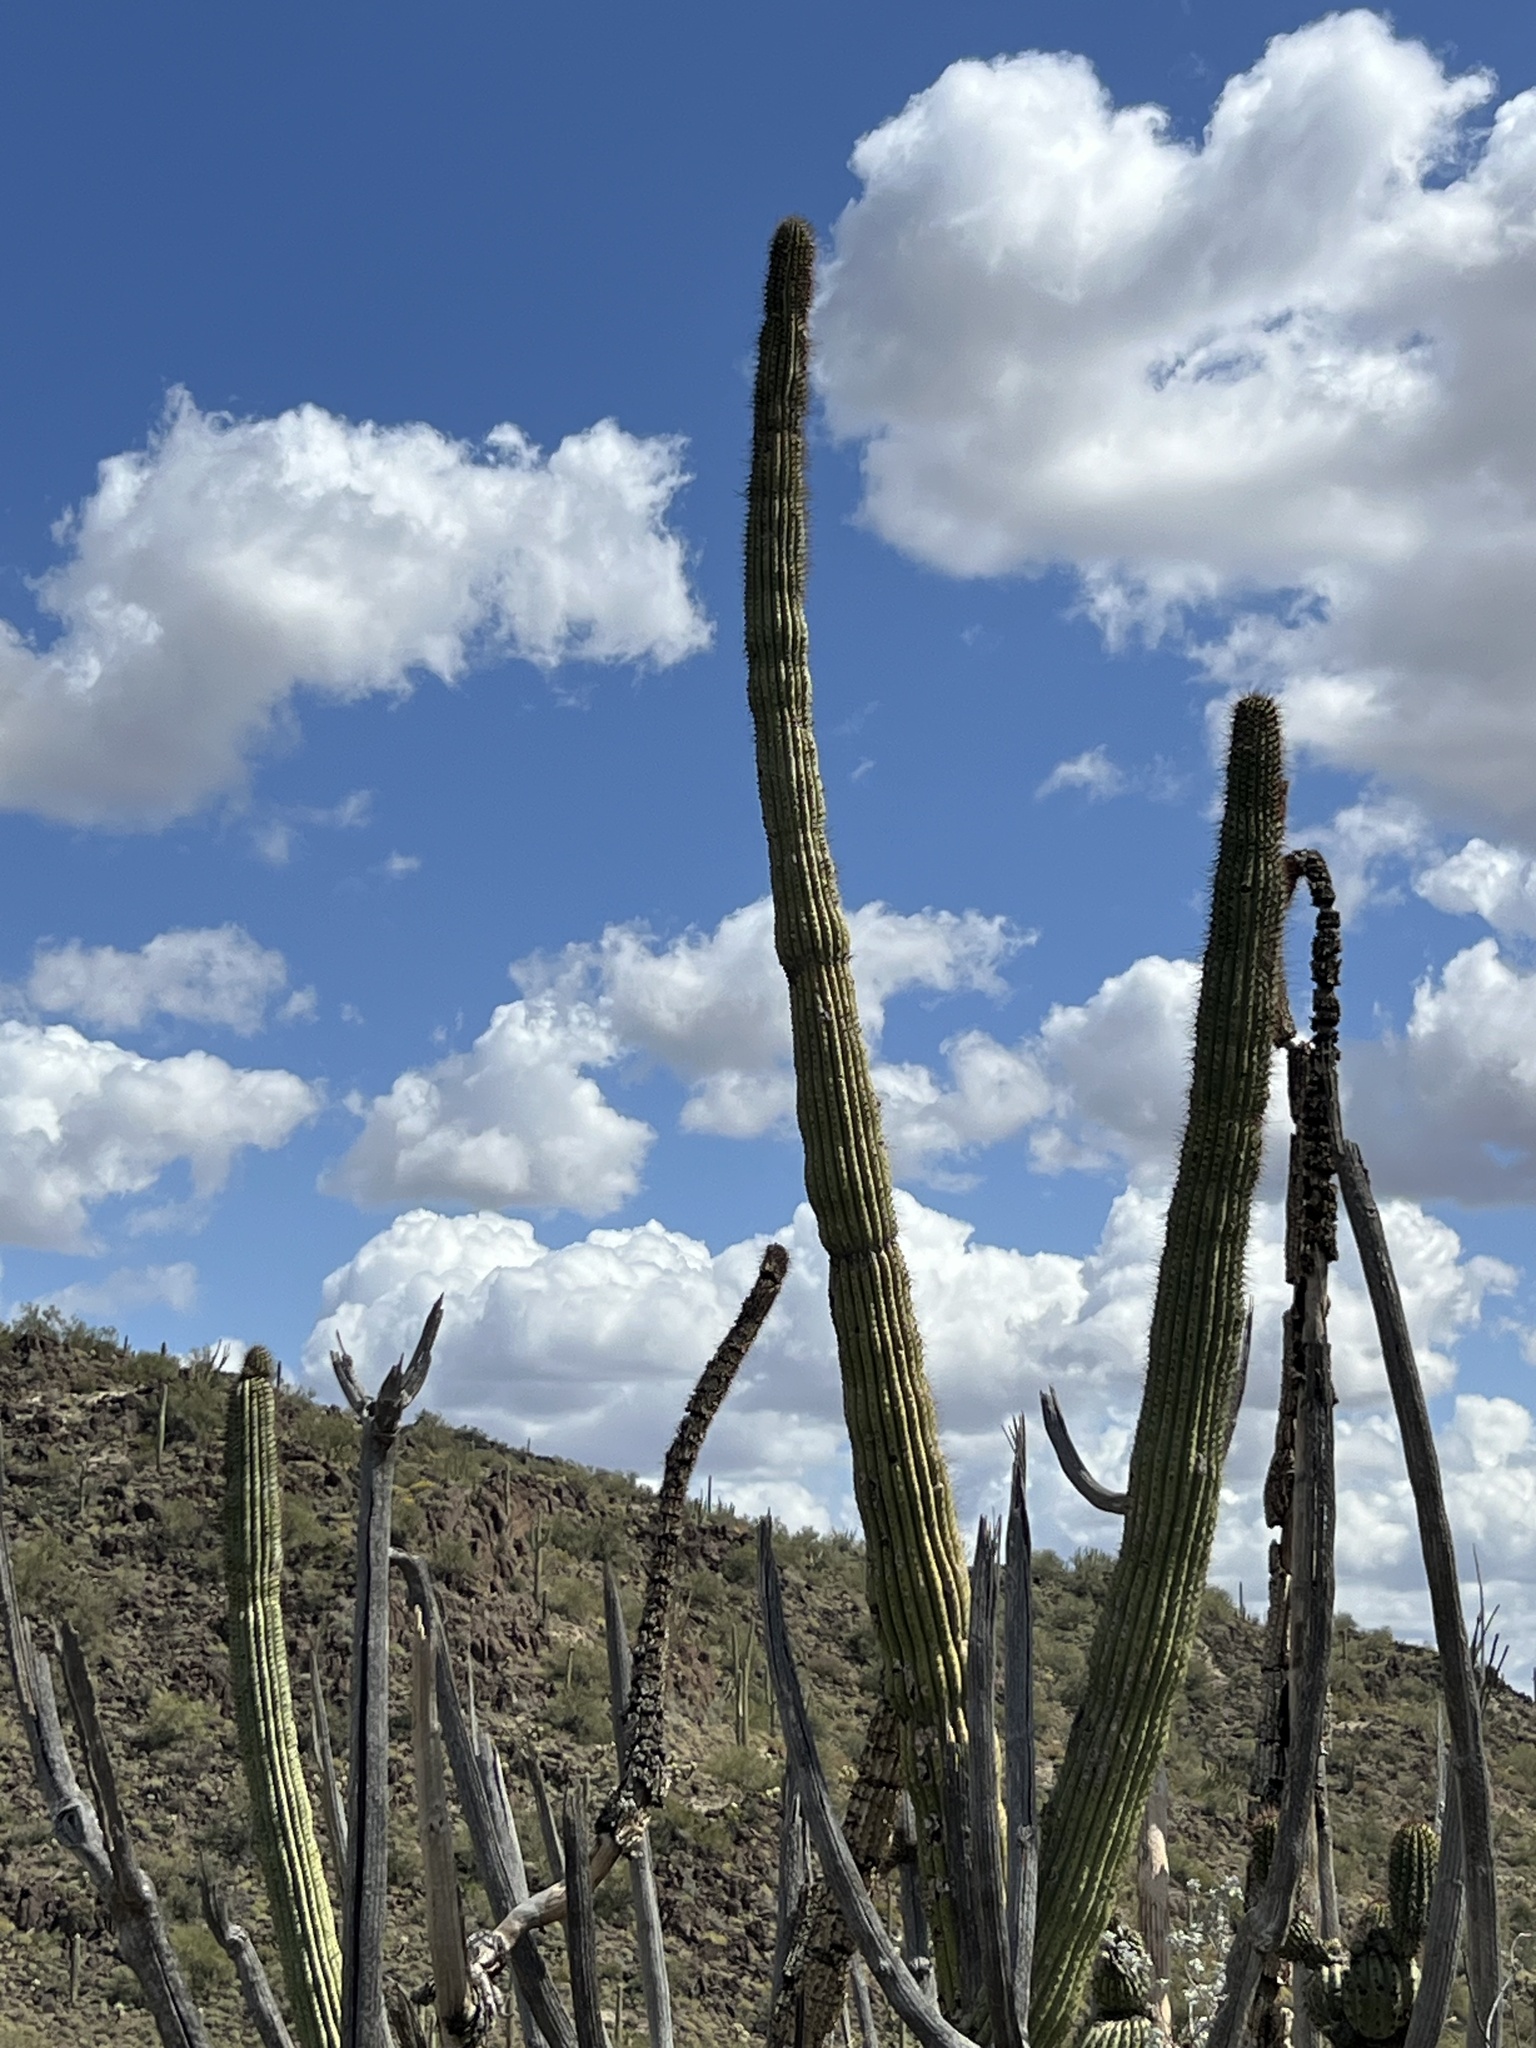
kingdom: Plantae
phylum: Tracheophyta
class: Magnoliopsida
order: Caryophyllales
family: Cactaceae
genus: Stenocereus
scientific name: Stenocereus thurberi
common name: Organ pipe cactus
